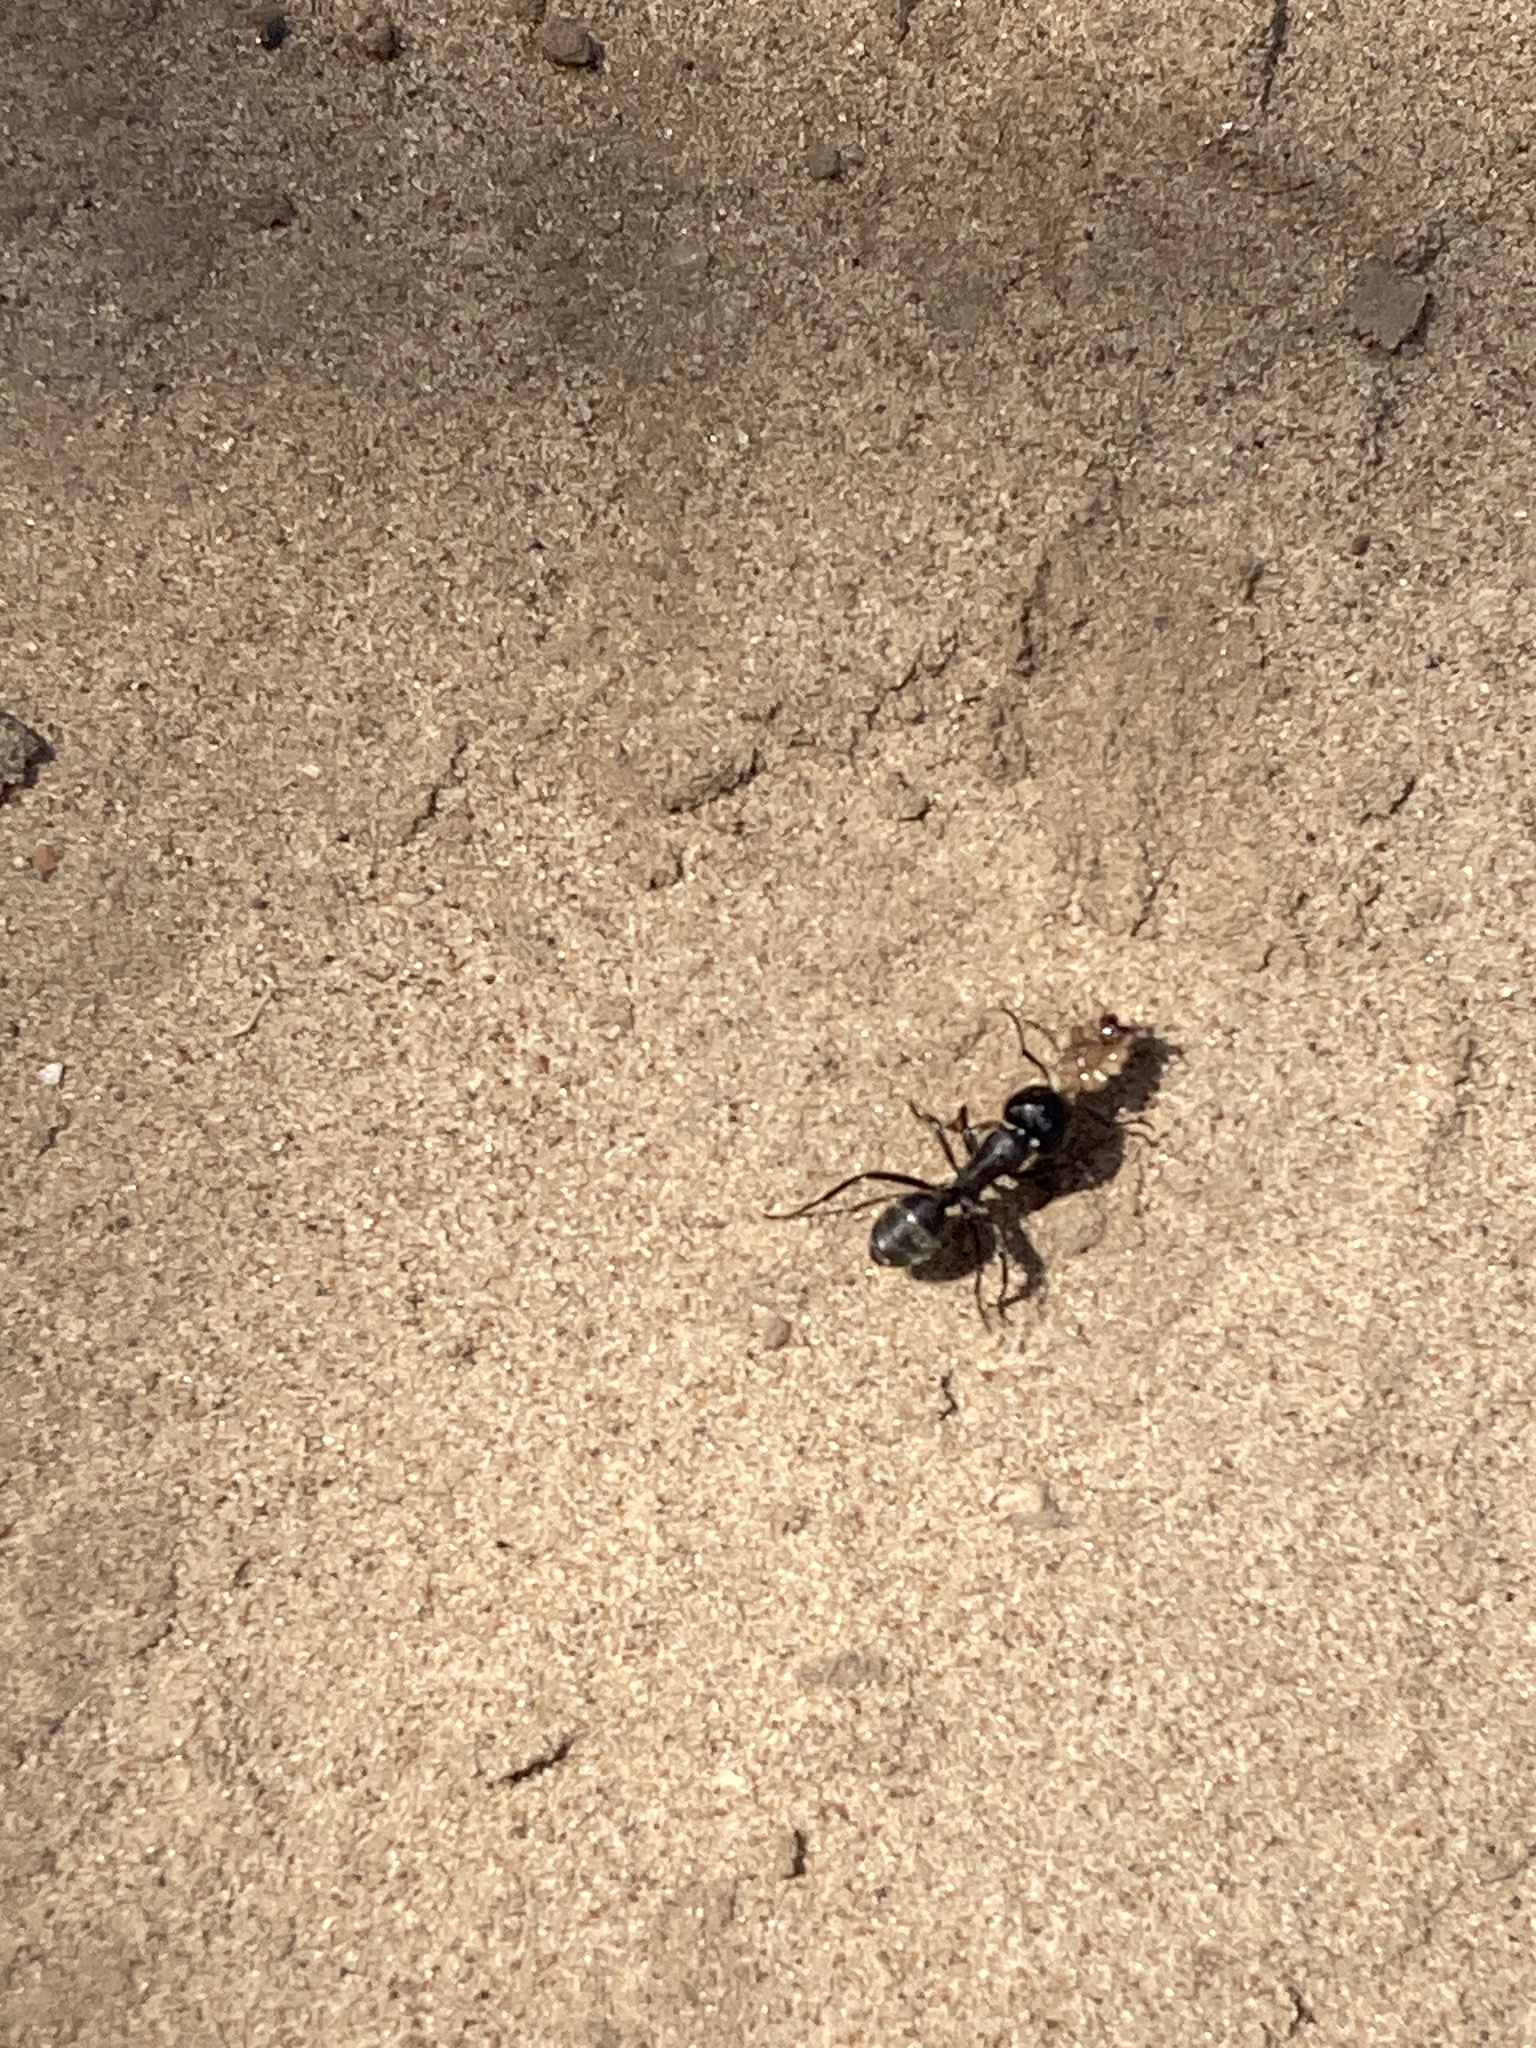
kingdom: Animalia
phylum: Arthropoda
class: Insecta
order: Hymenoptera
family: Formicidae
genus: Camponotus
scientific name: Camponotus vagus
